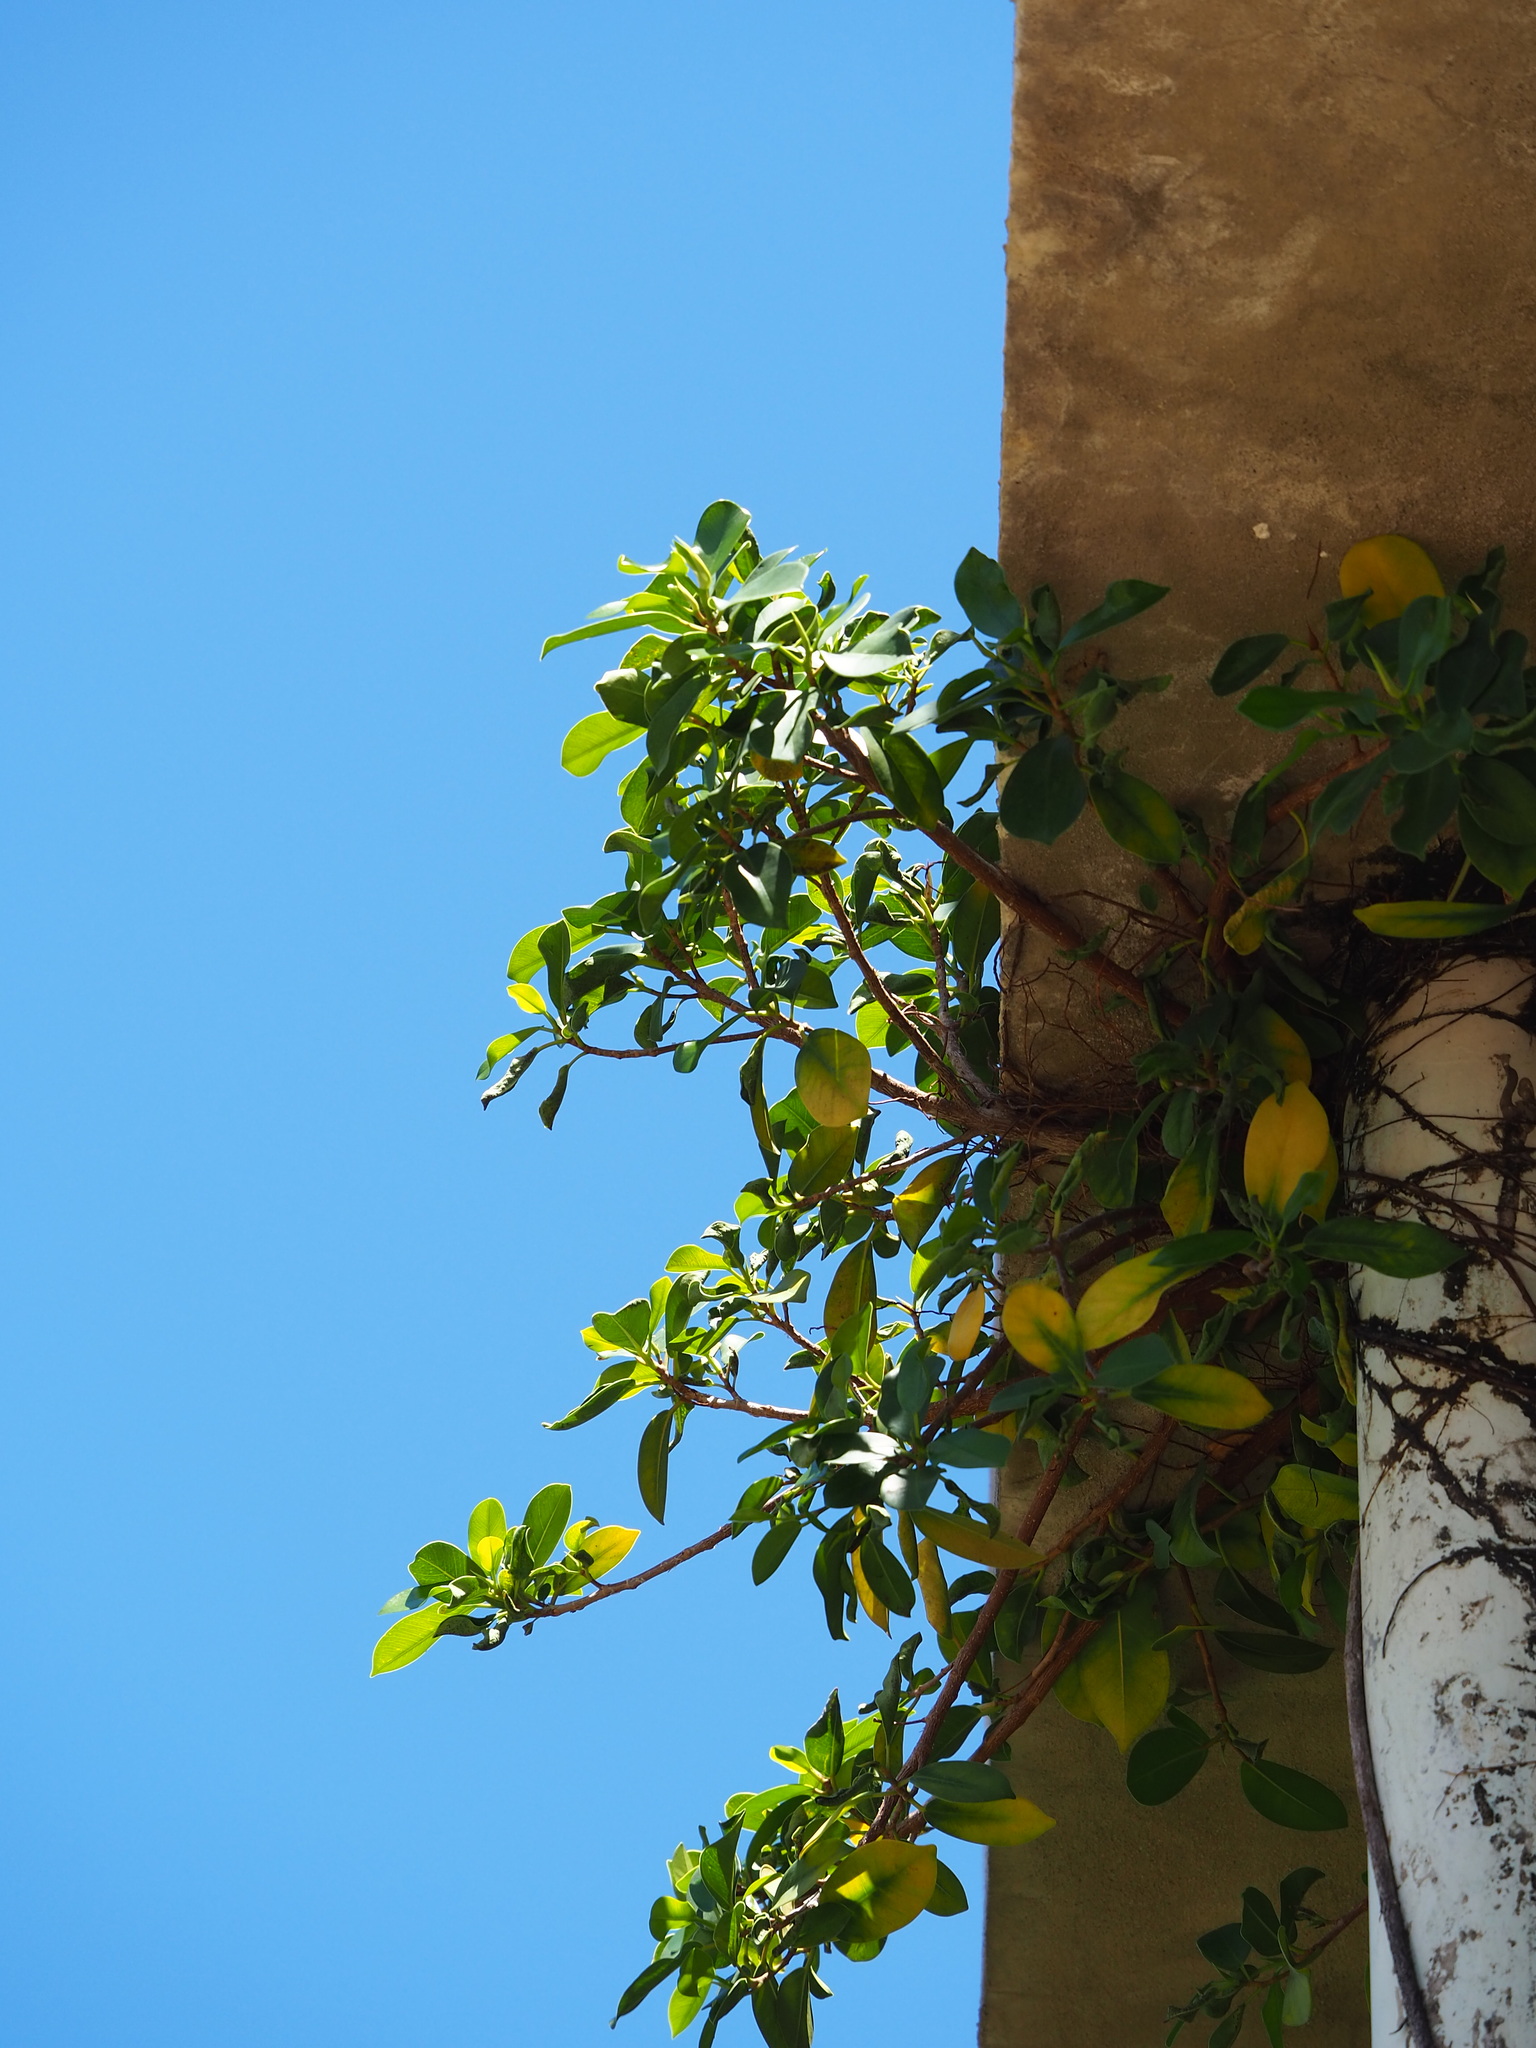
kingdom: Plantae
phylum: Tracheophyta
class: Magnoliopsida
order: Rosales
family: Moraceae
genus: Ficus
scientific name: Ficus microcarpa
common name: Chinese banyan
